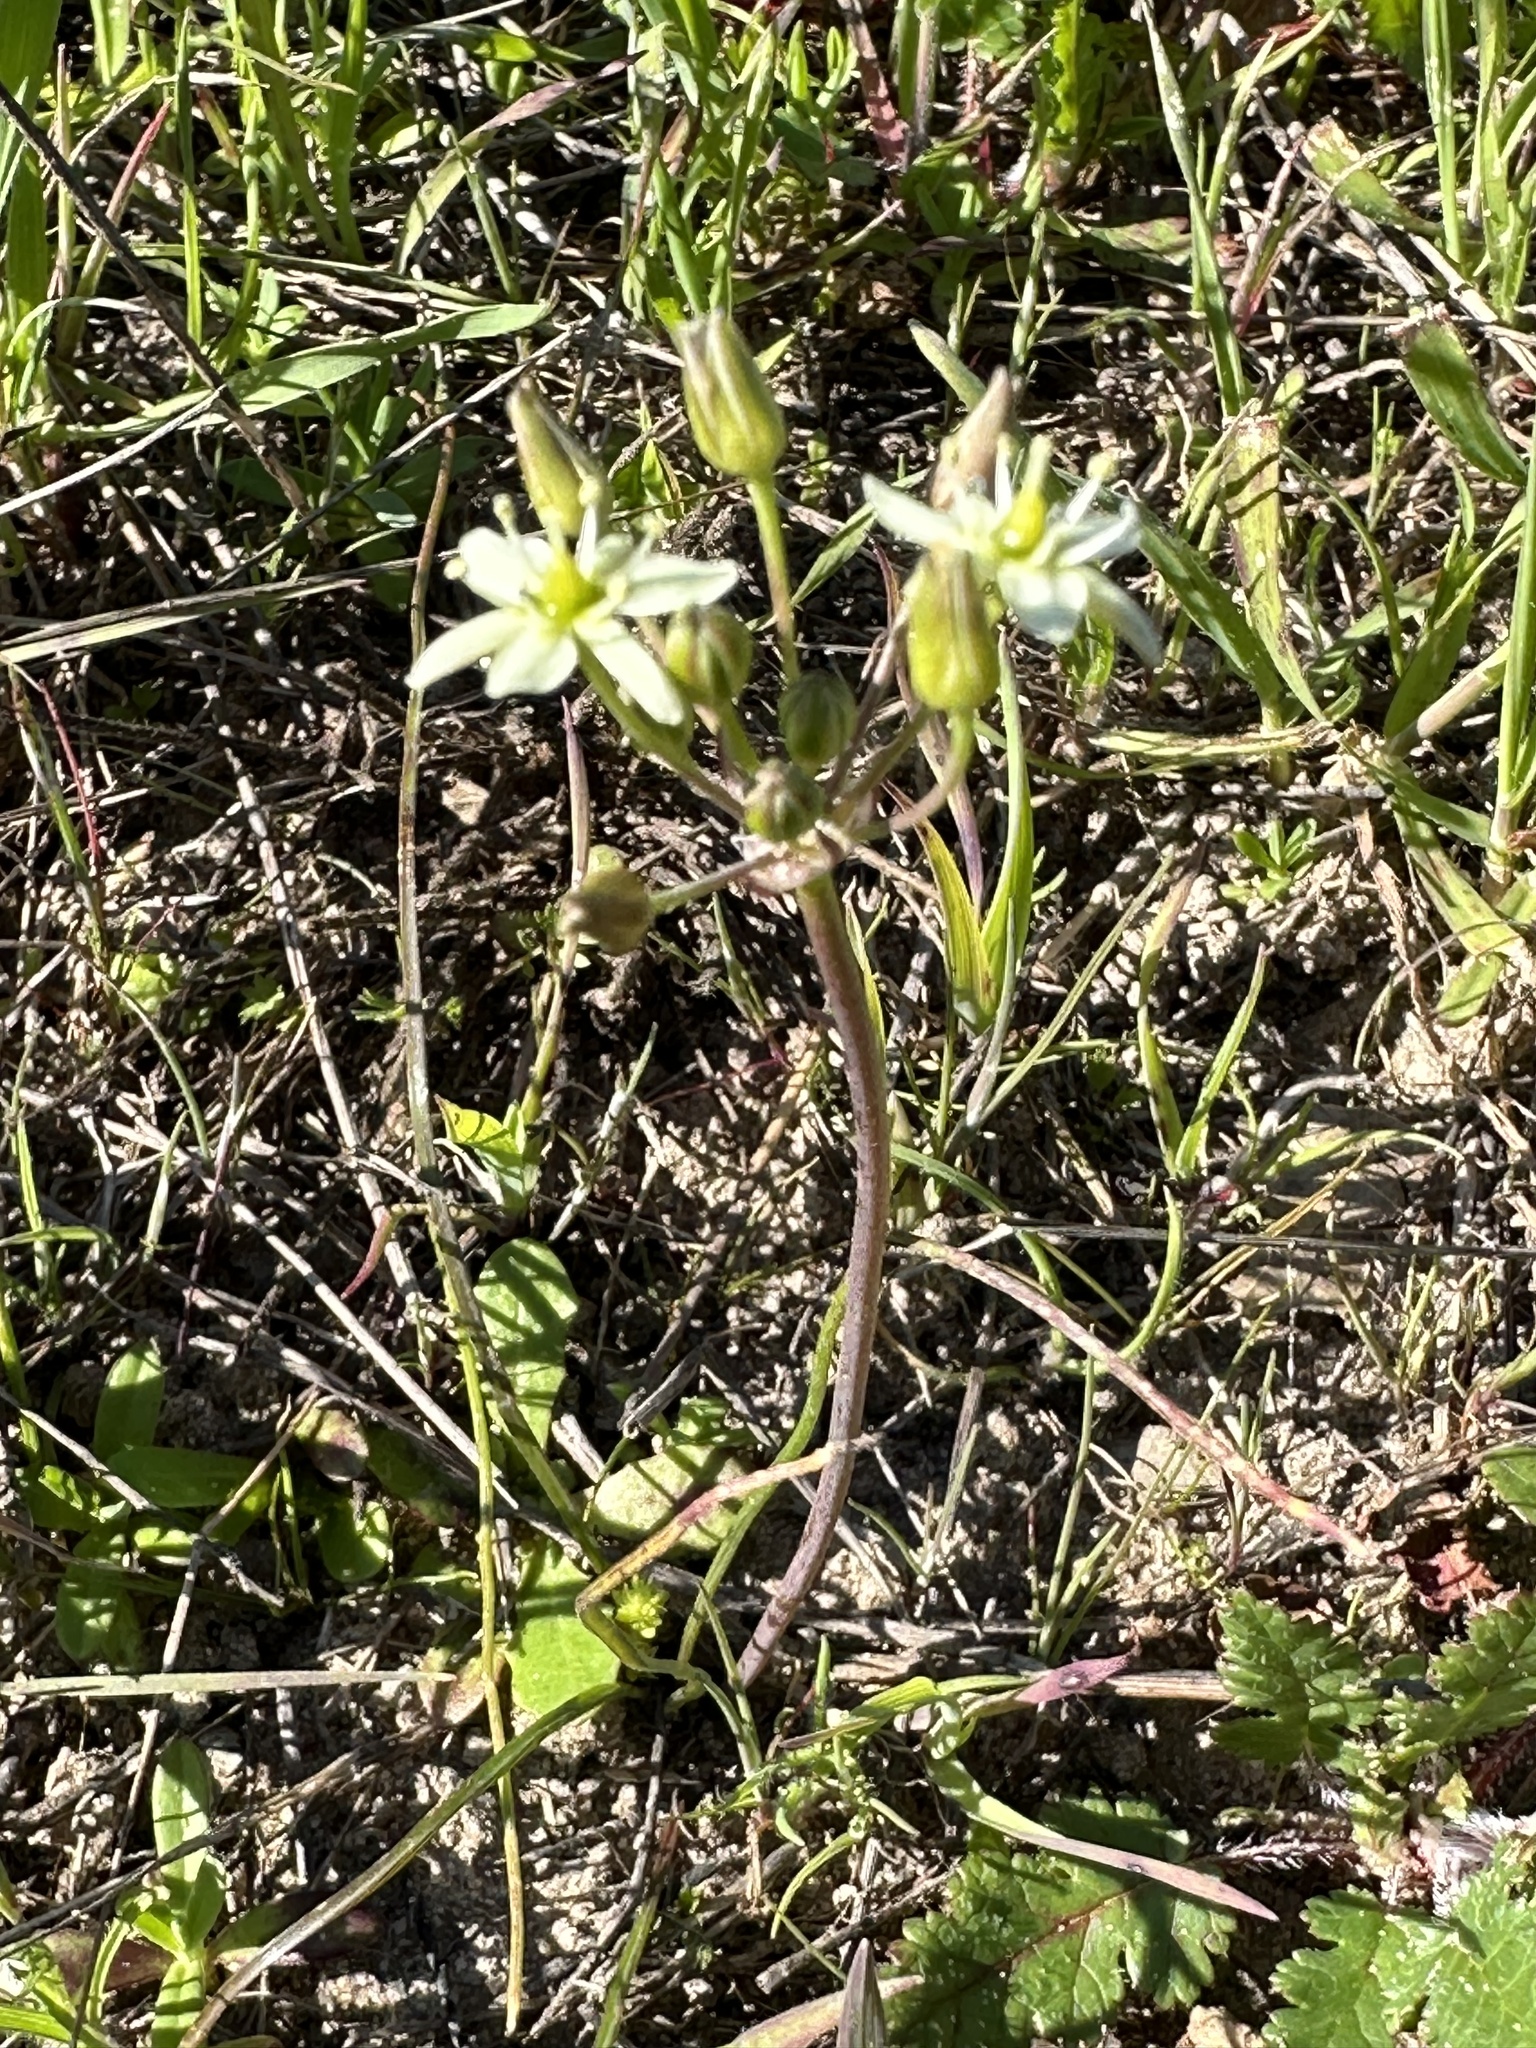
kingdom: Plantae
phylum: Tracheophyta
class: Liliopsida
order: Asparagales
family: Asparagaceae
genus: Muilla
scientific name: Muilla maritima
